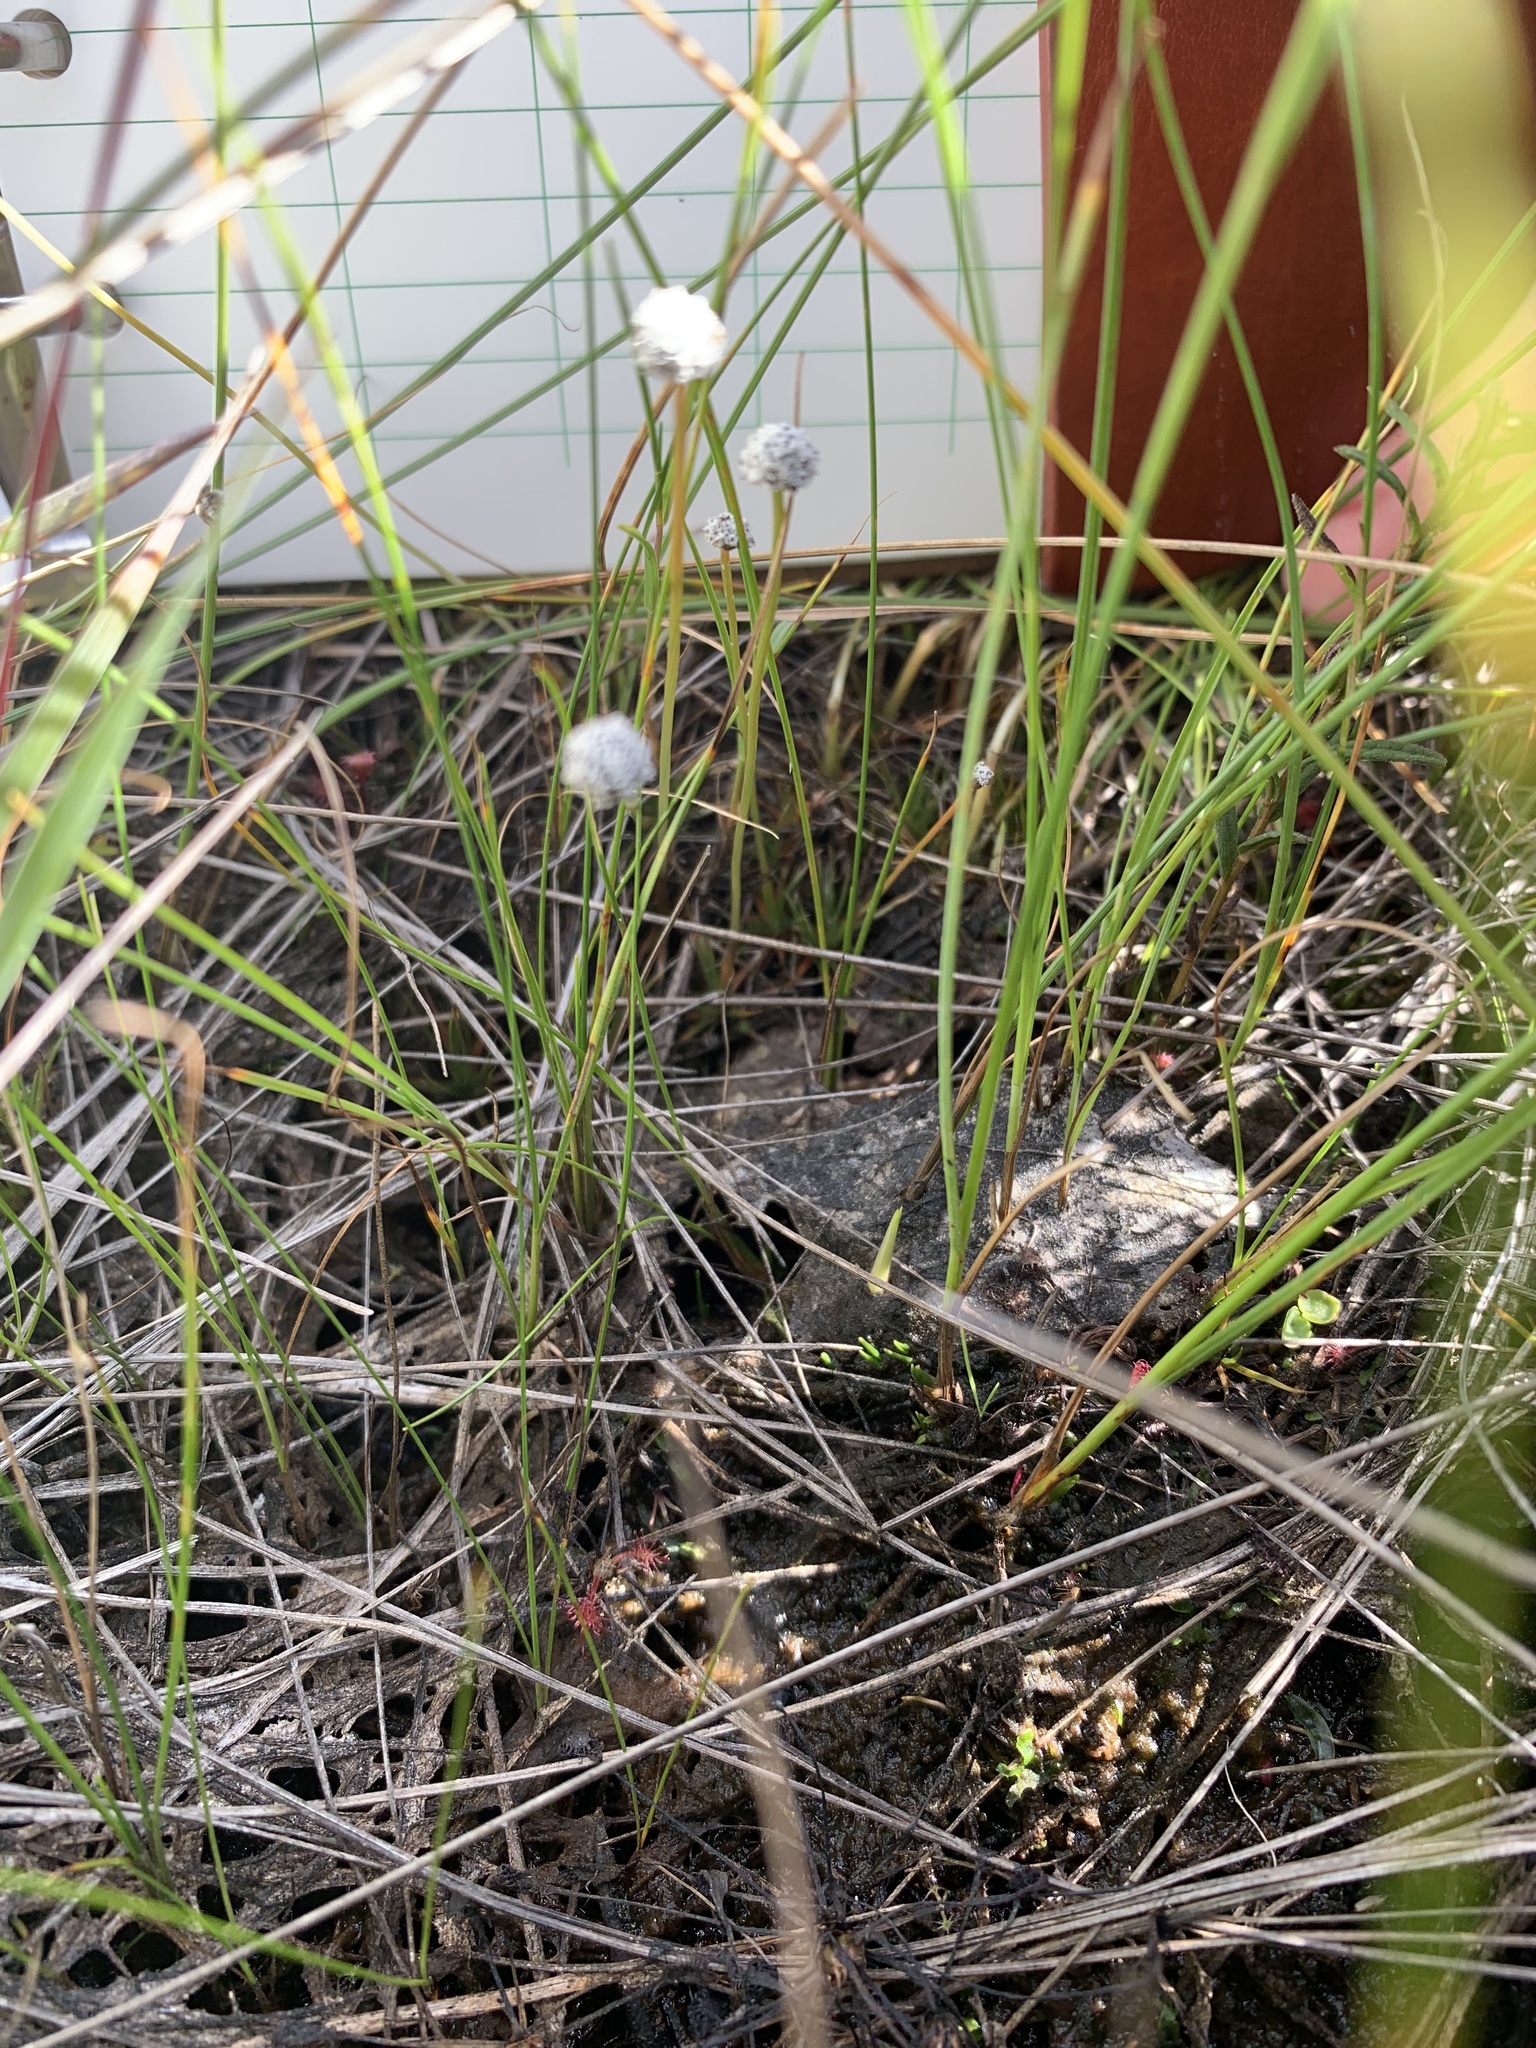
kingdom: Plantae
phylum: Tracheophyta
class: Liliopsida
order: Poales
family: Eriocaulaceae
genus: Eriocaulon
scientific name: Eriocaulon aquaticum
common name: Pipewort
